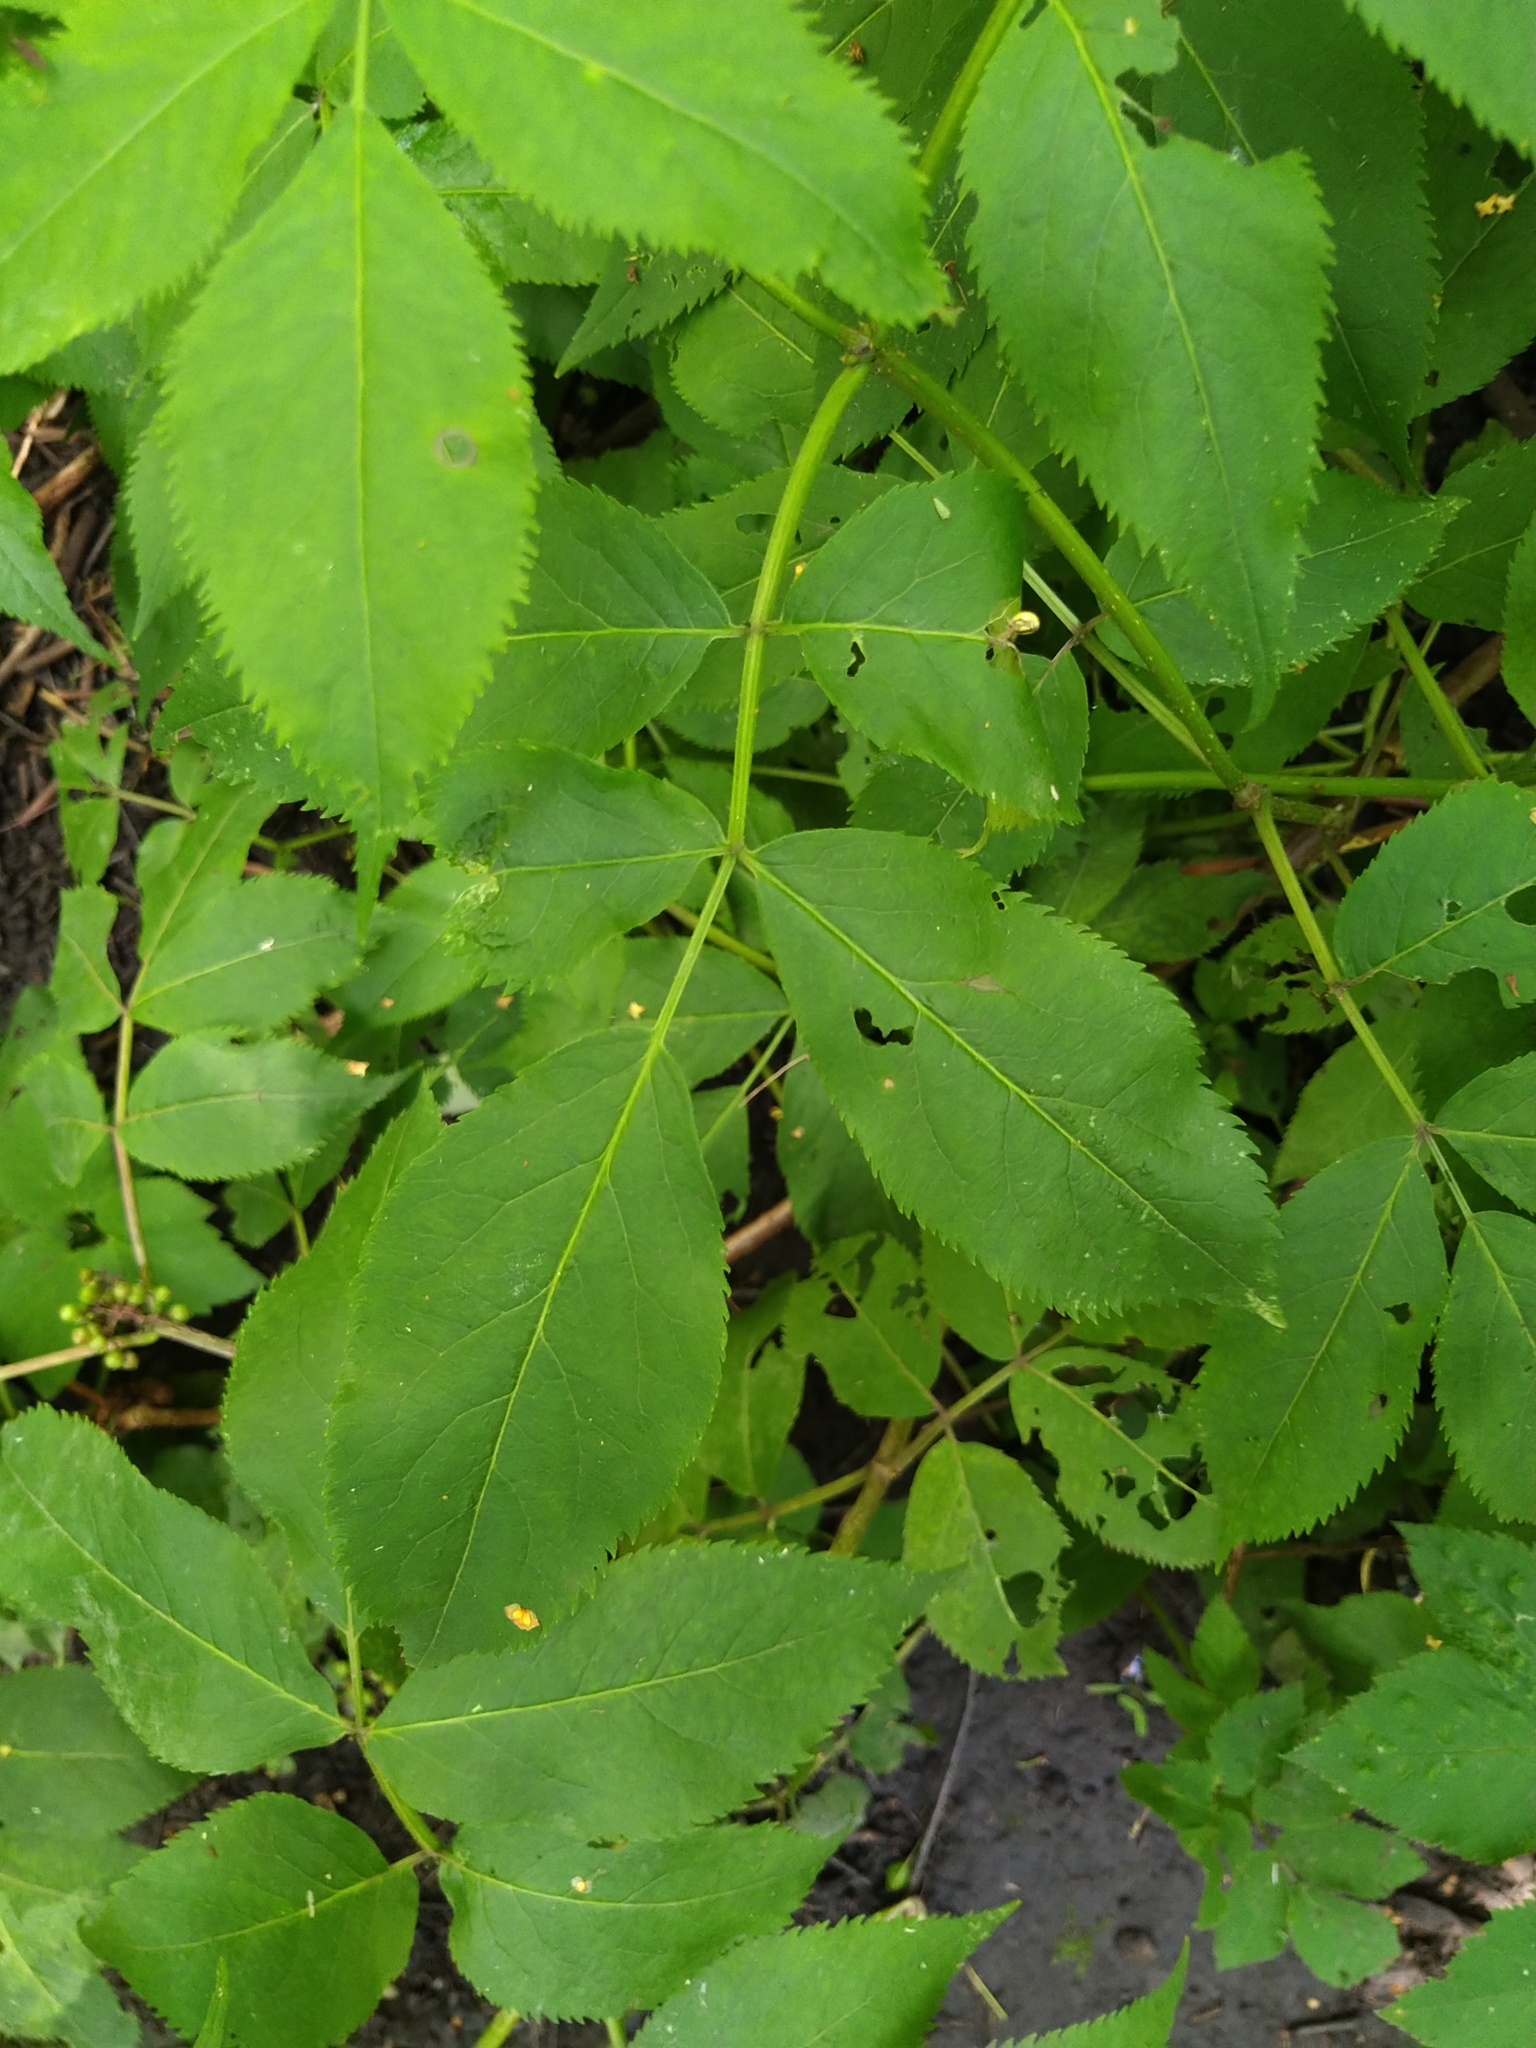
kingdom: Plantae
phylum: Tracheophyta
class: Magnoliopsida
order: Dipsacales
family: Viburnaceae
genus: Sambucus
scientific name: Sambucus racemosa
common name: Red-berried elder
